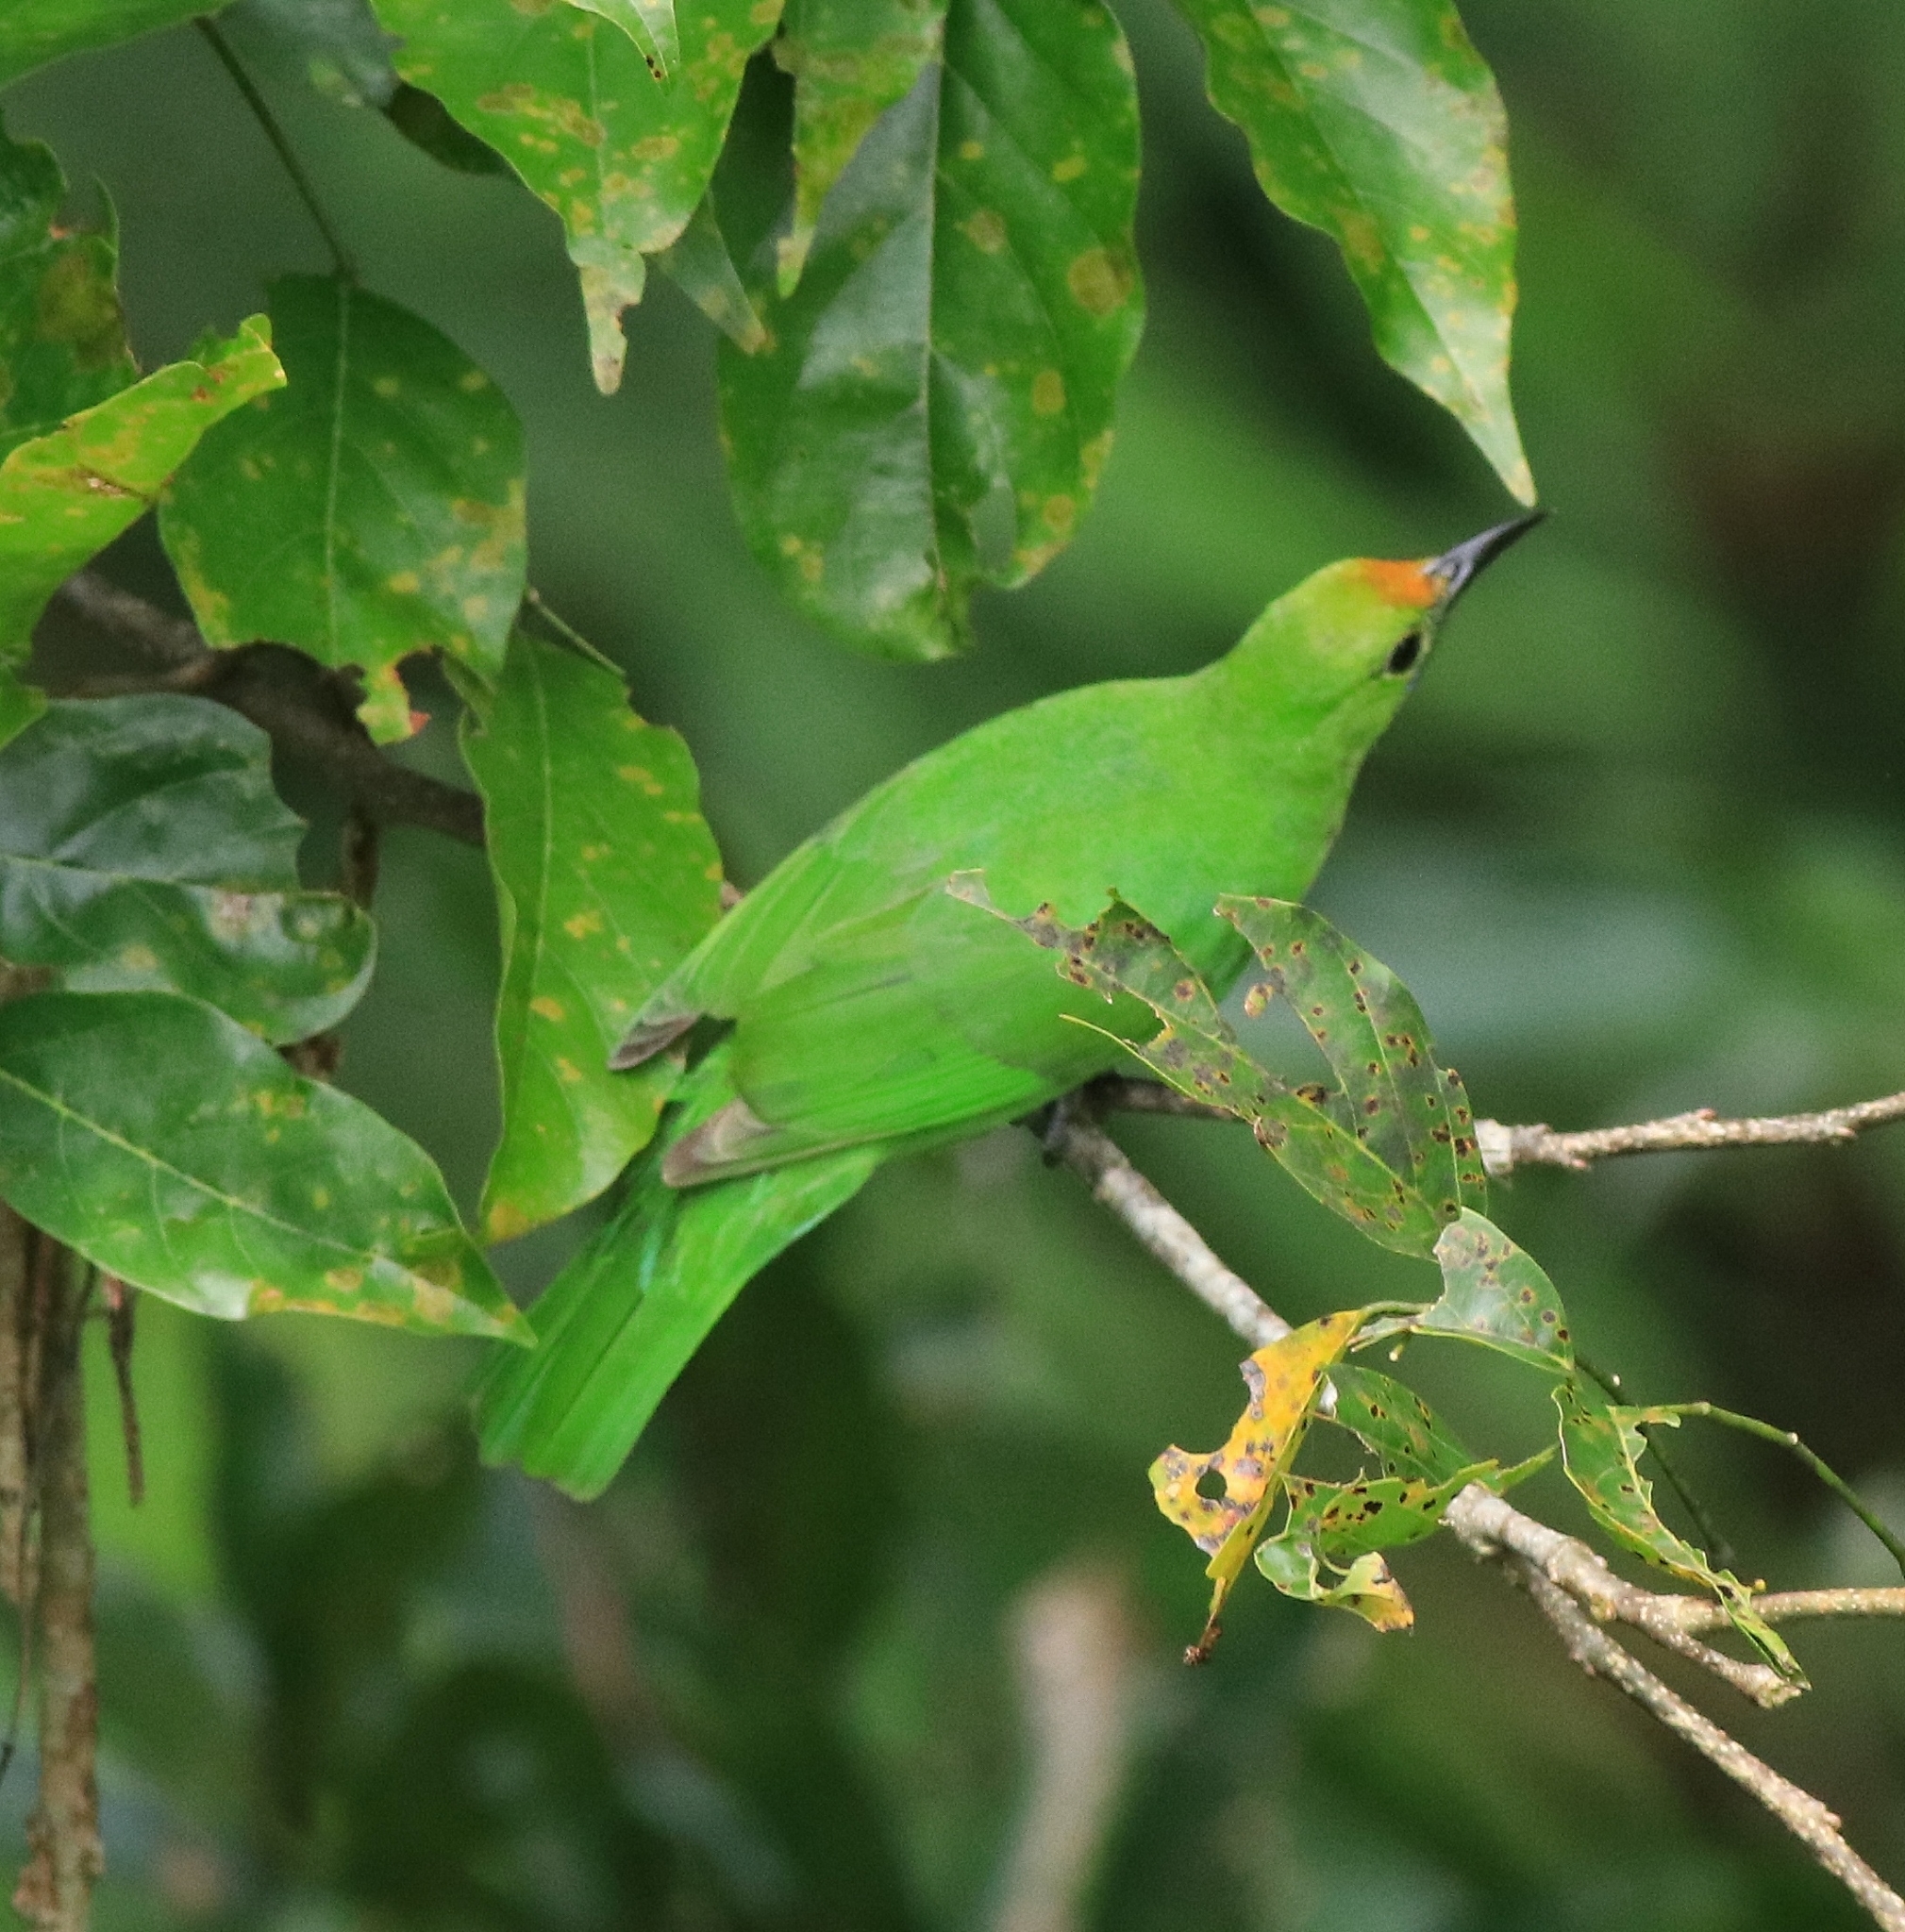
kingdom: Animalia
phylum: Chordata
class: Aves
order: Passeriformes
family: Chloropseidae
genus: Chloropsis
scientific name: Chloropsis aurifrons
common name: Golden-fronted leafbird
